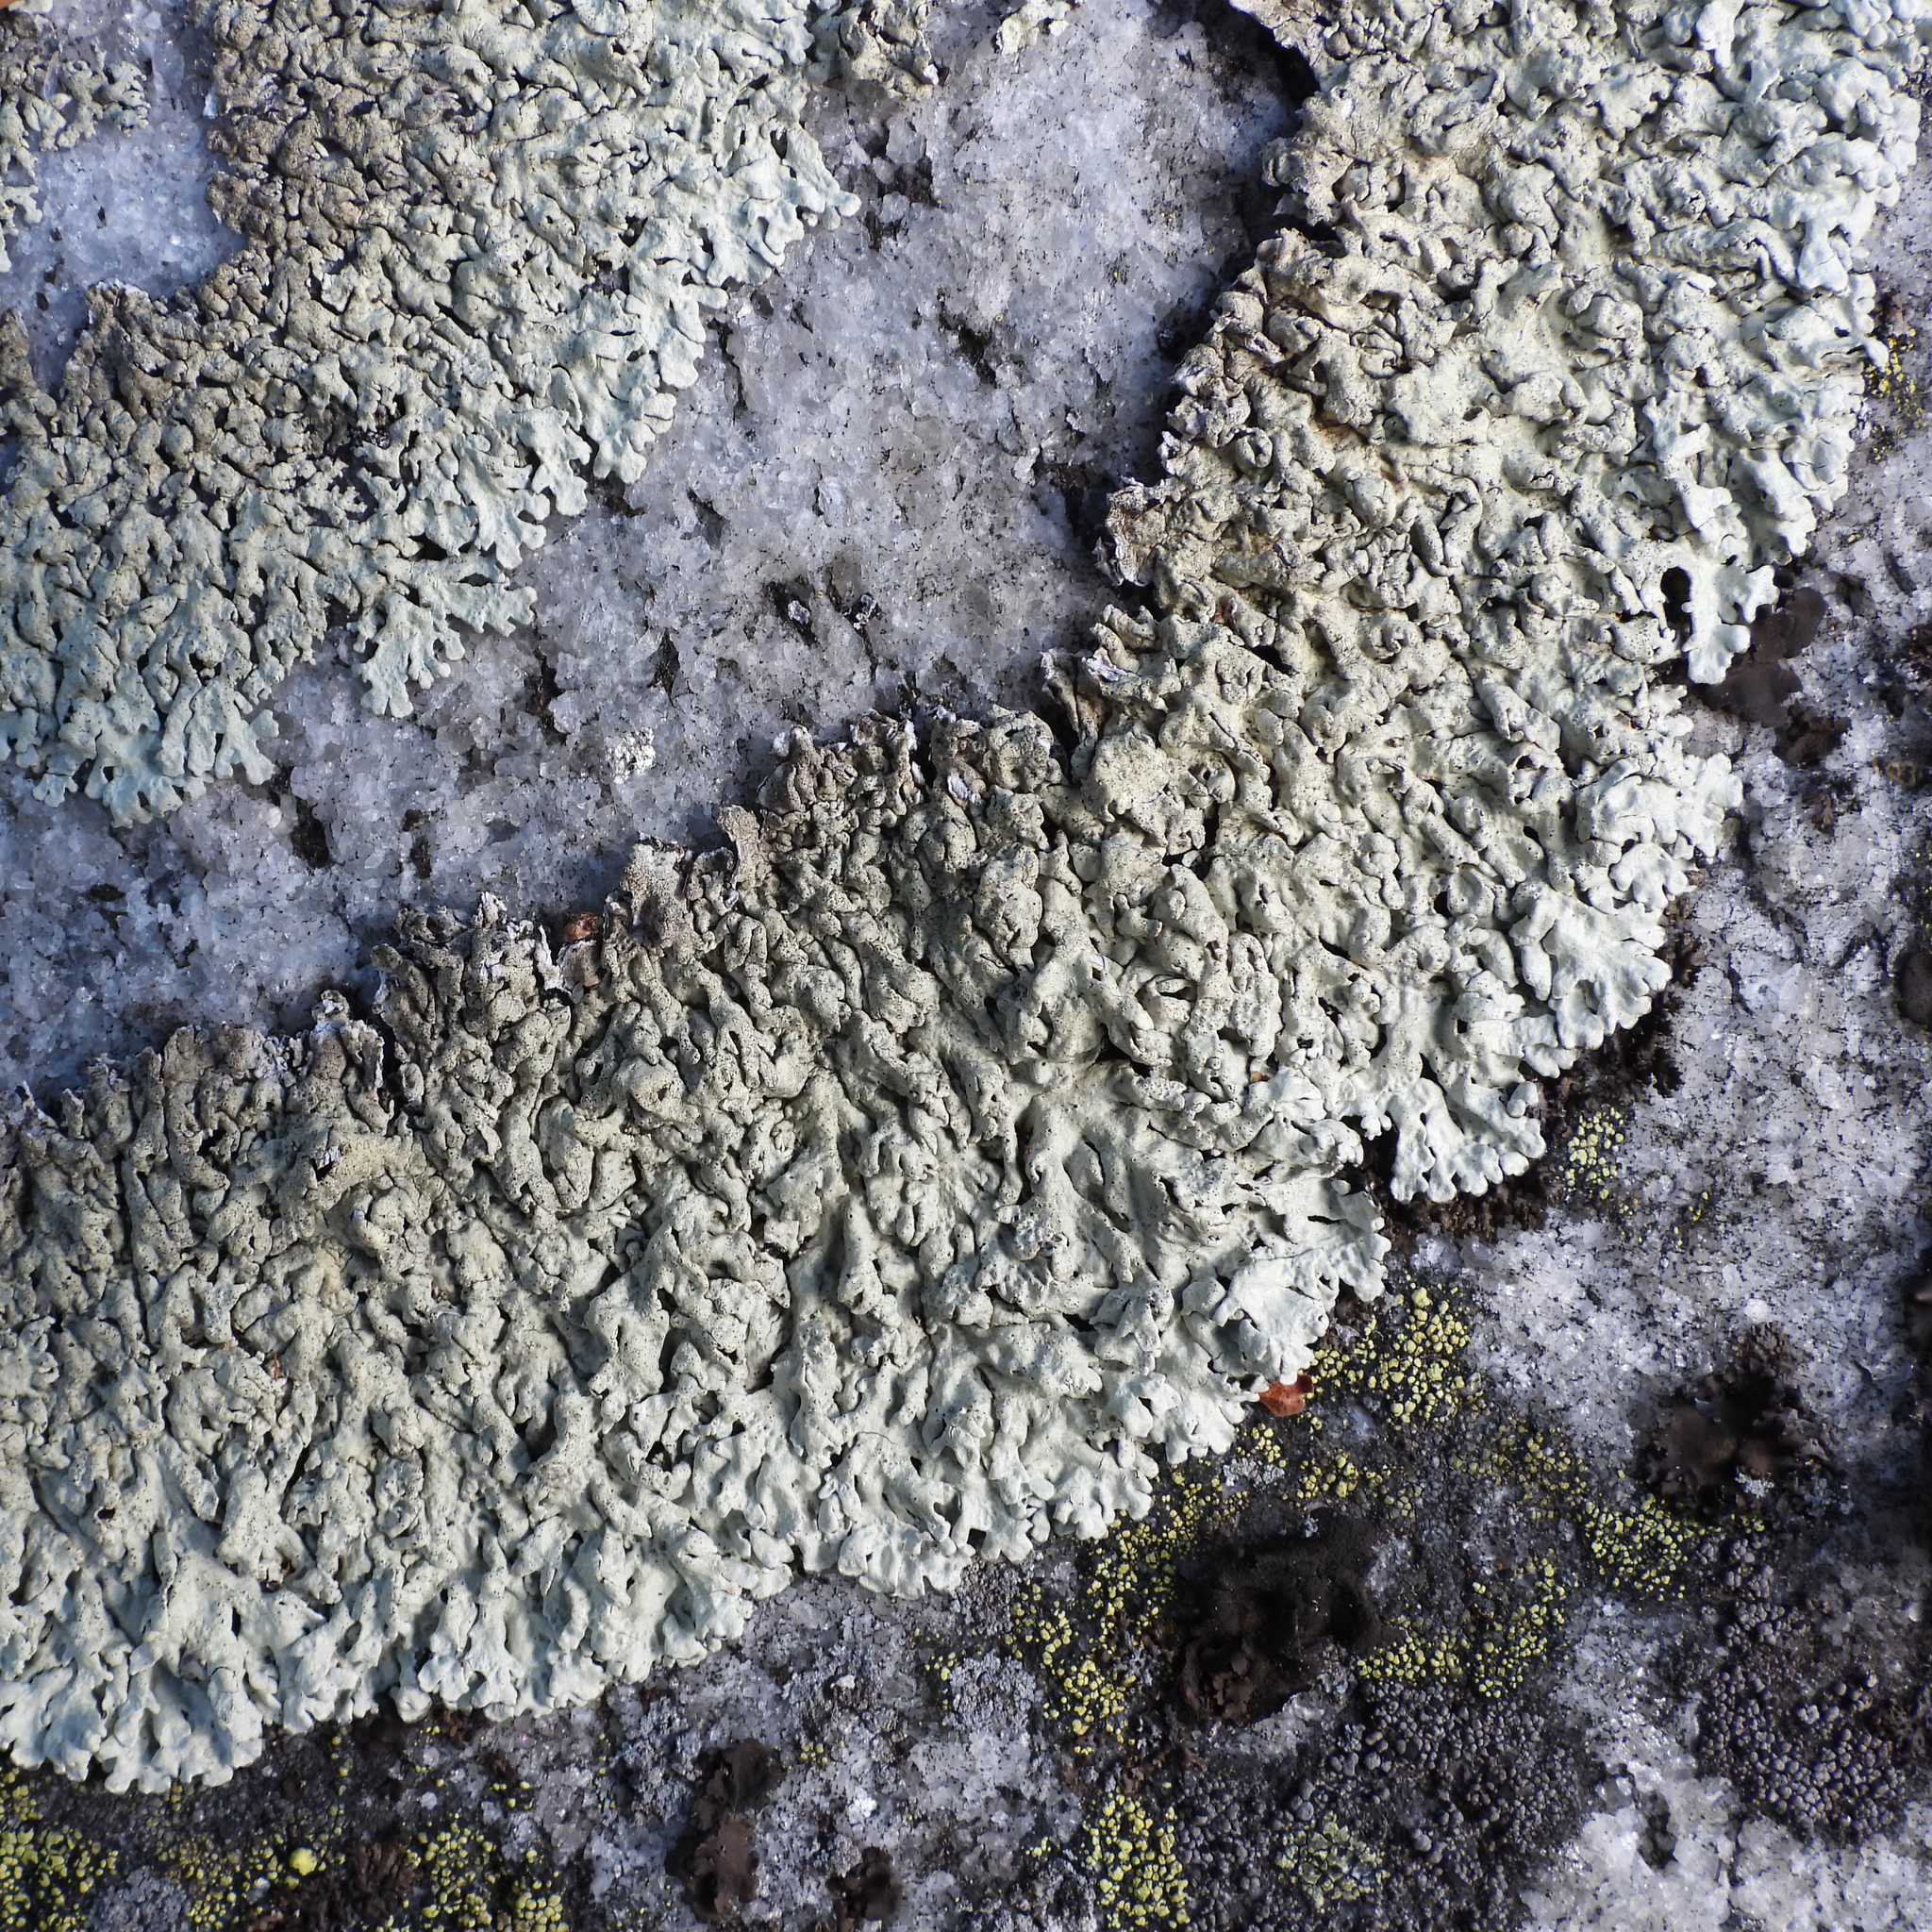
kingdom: Fungi
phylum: Ascomycota
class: Lecanoromycetes
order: Lecanorales
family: Parmeliaceae
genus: Arctoparmelia
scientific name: Arctoparmelia centrifuga
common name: Concentric ring lichen
